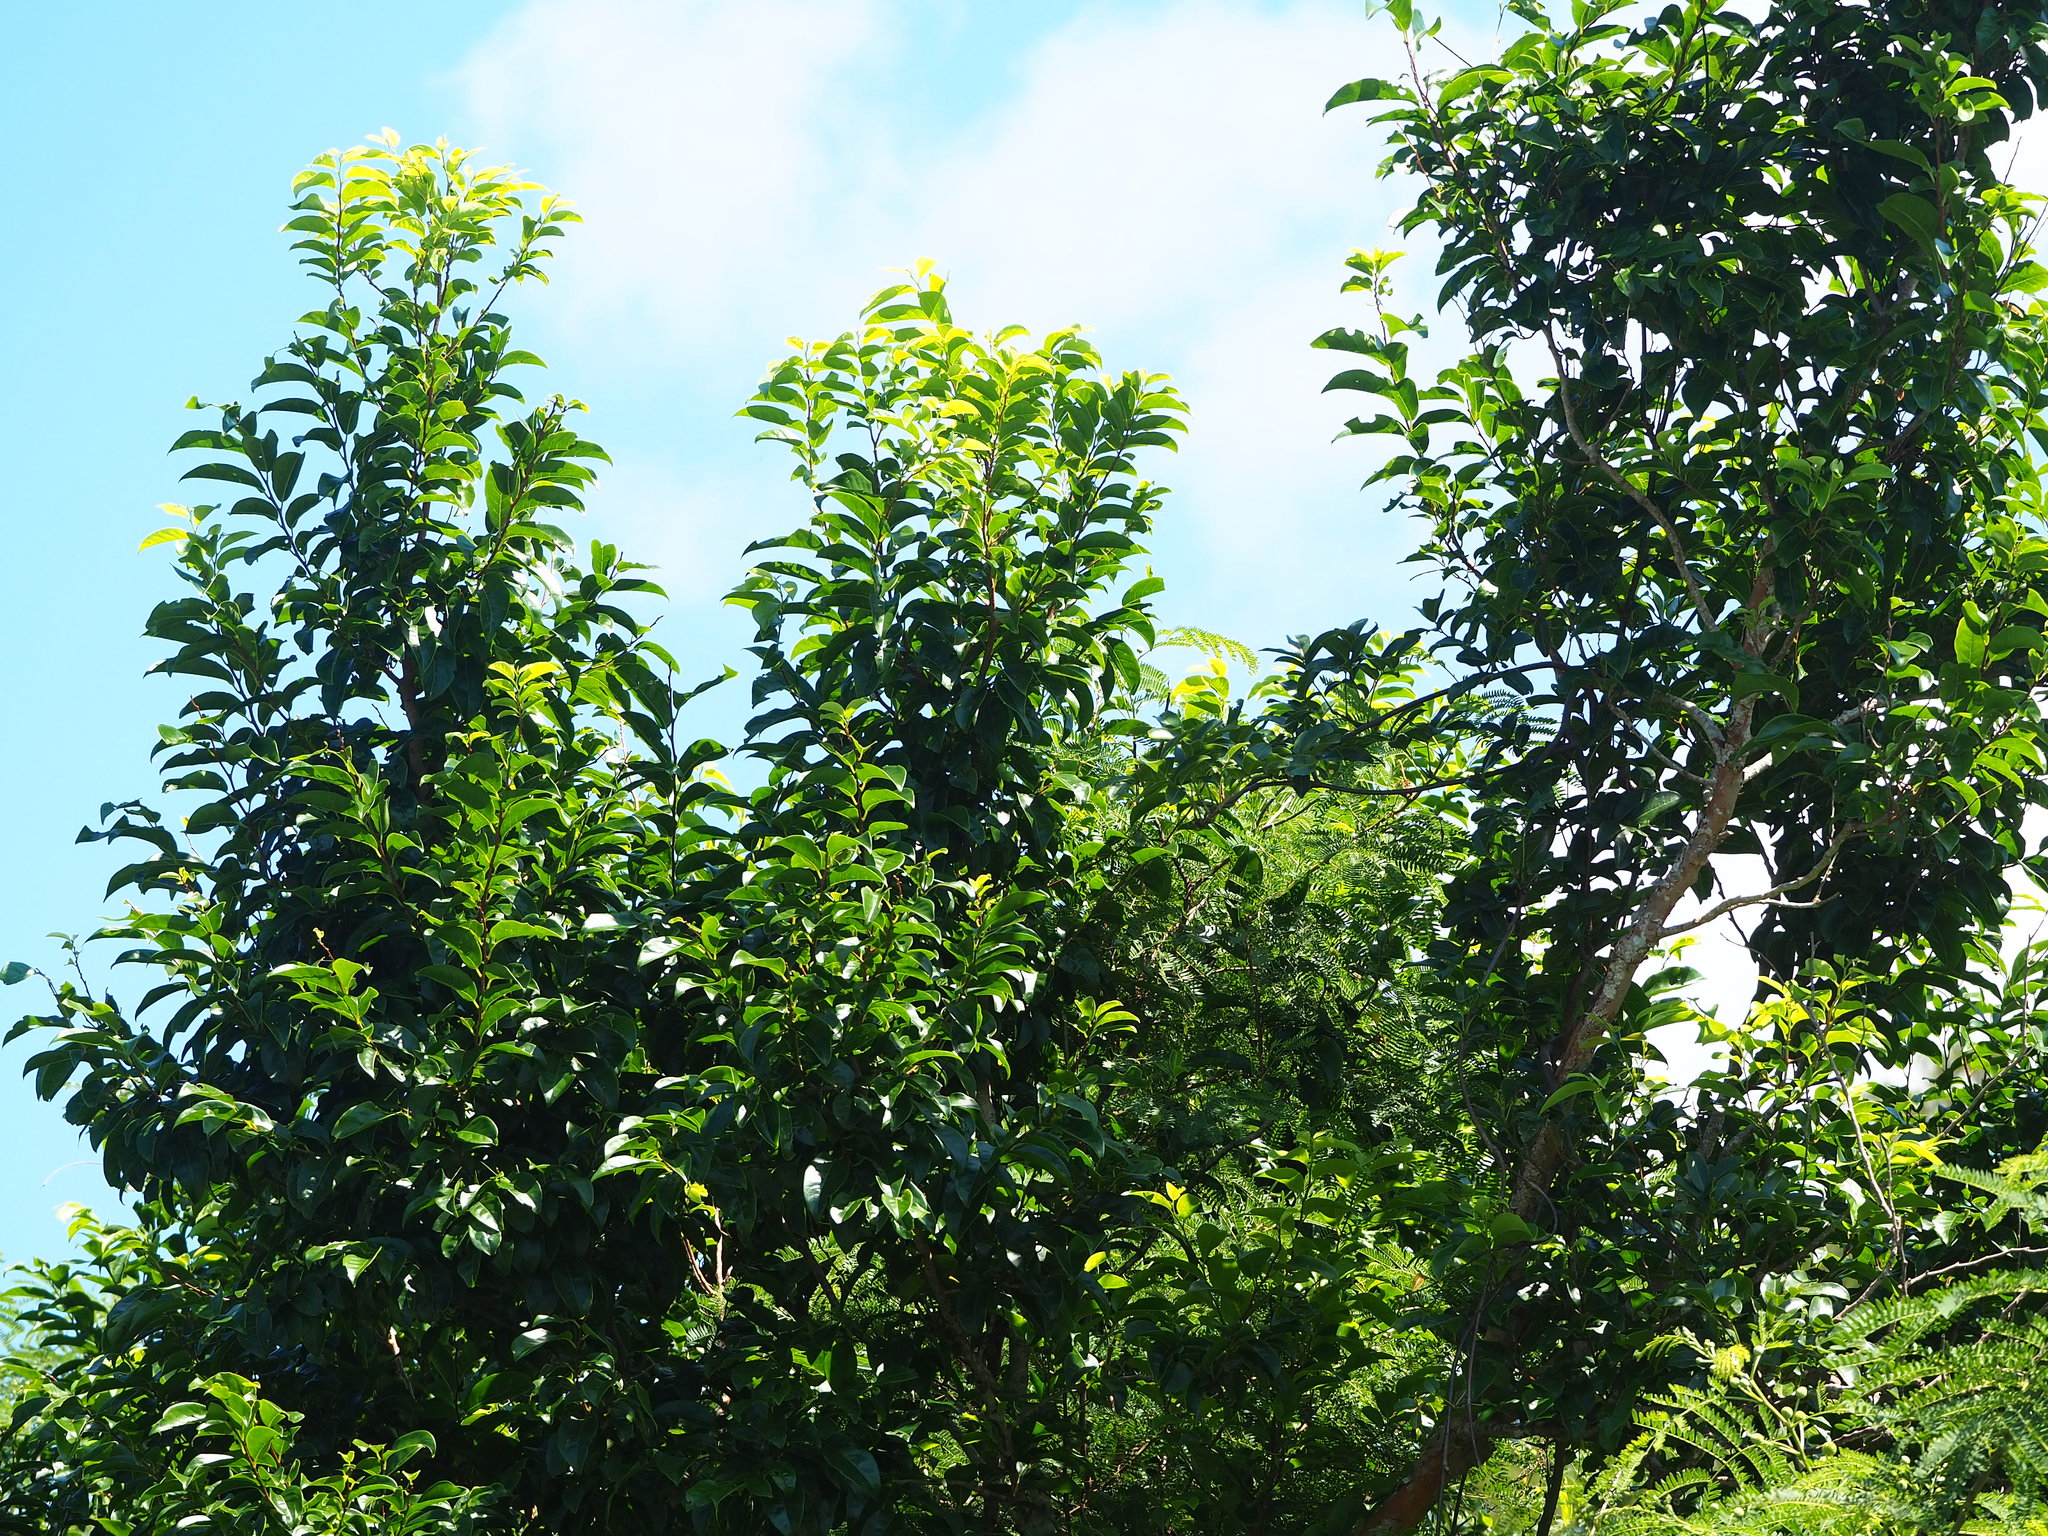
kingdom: Plantae
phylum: Tracheophyta
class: Magnoliopsida
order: Malpighiales
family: Phyllanthaceae
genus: Margaritaria
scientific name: Margaritaria indica
